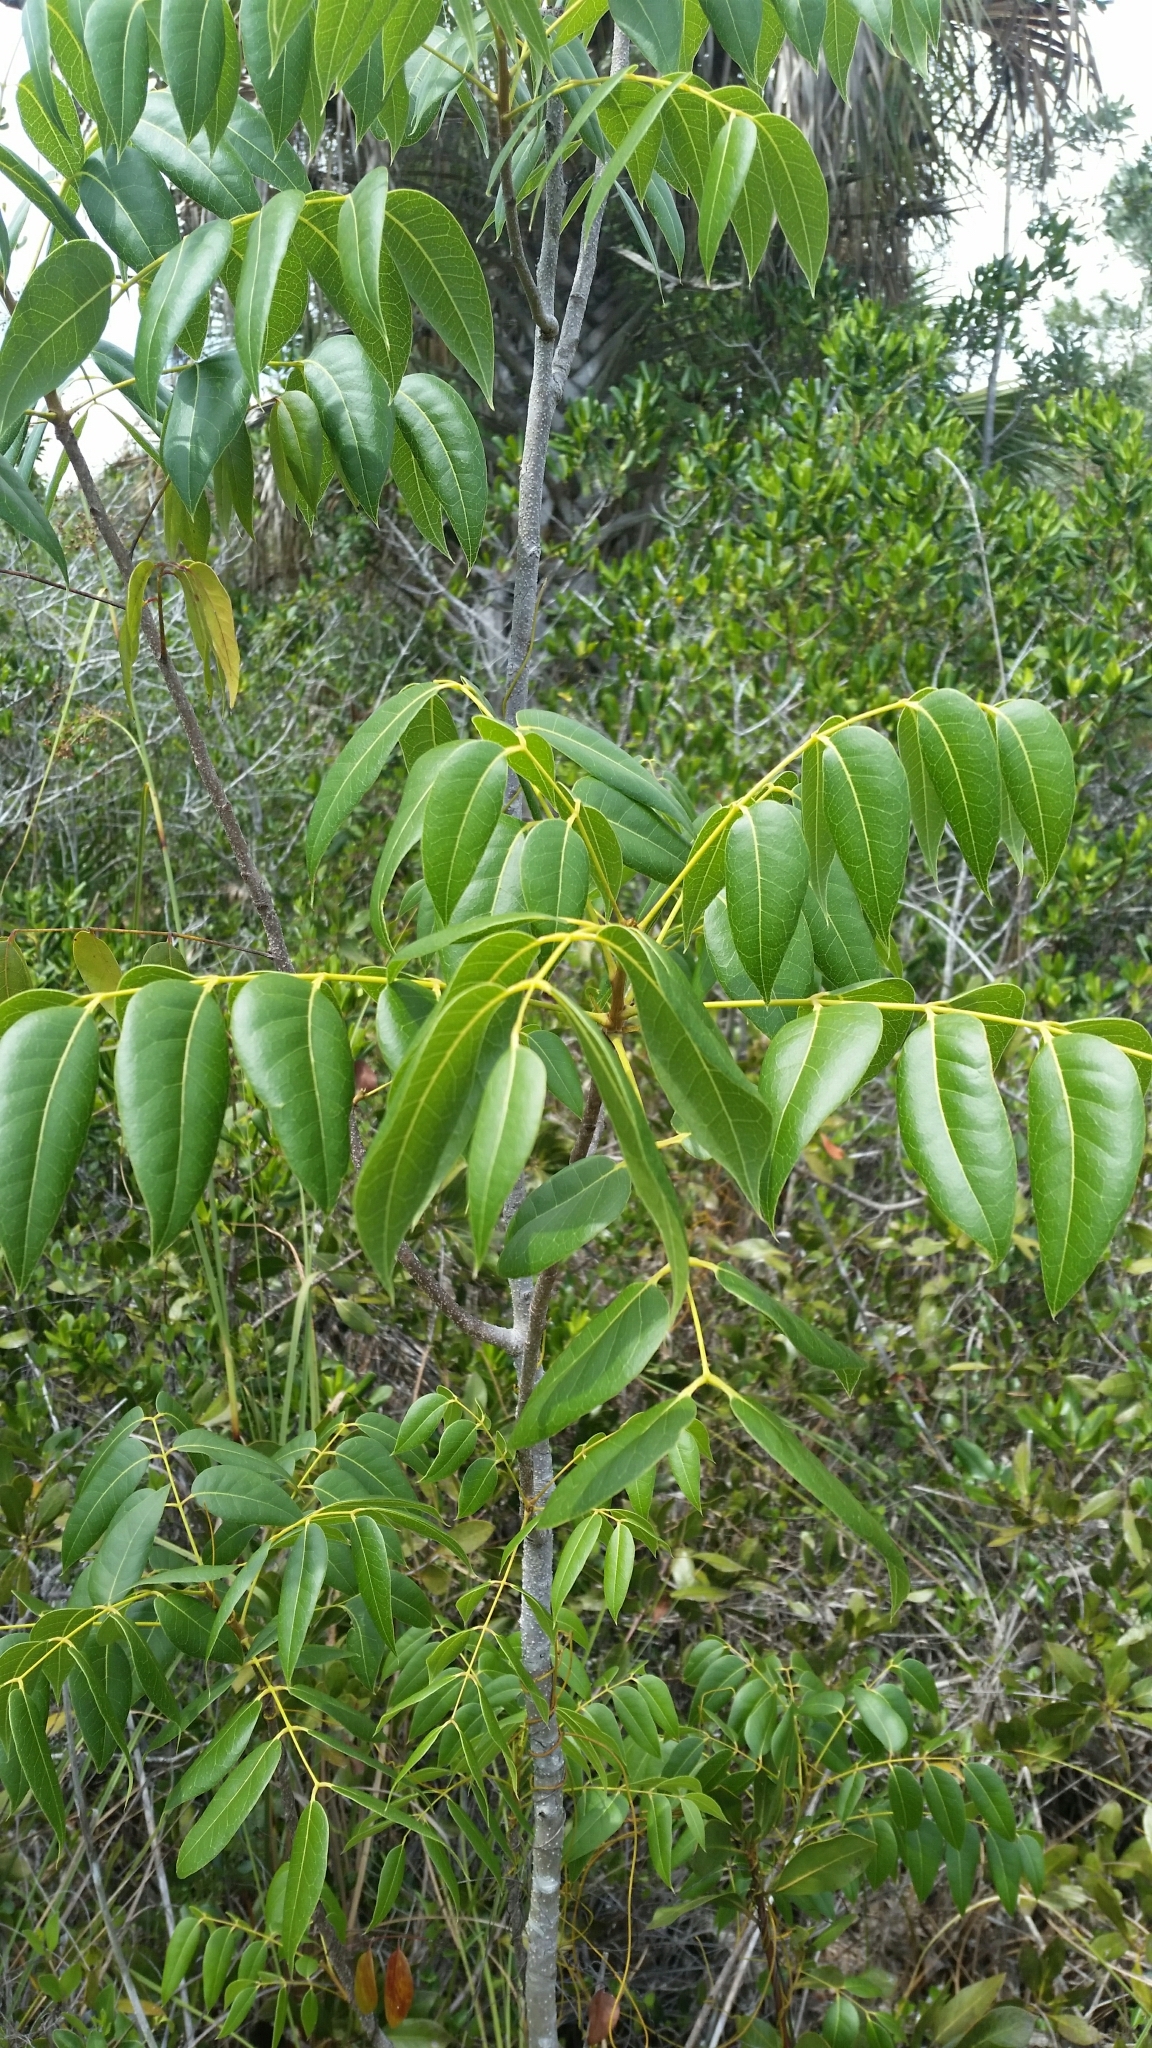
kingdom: Plantae
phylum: Tracheophyta
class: Magnoliopsida
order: Sapindales
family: Meliaceae
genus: Swietenia
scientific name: Swietenia mahagoni
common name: West indian mahogany
